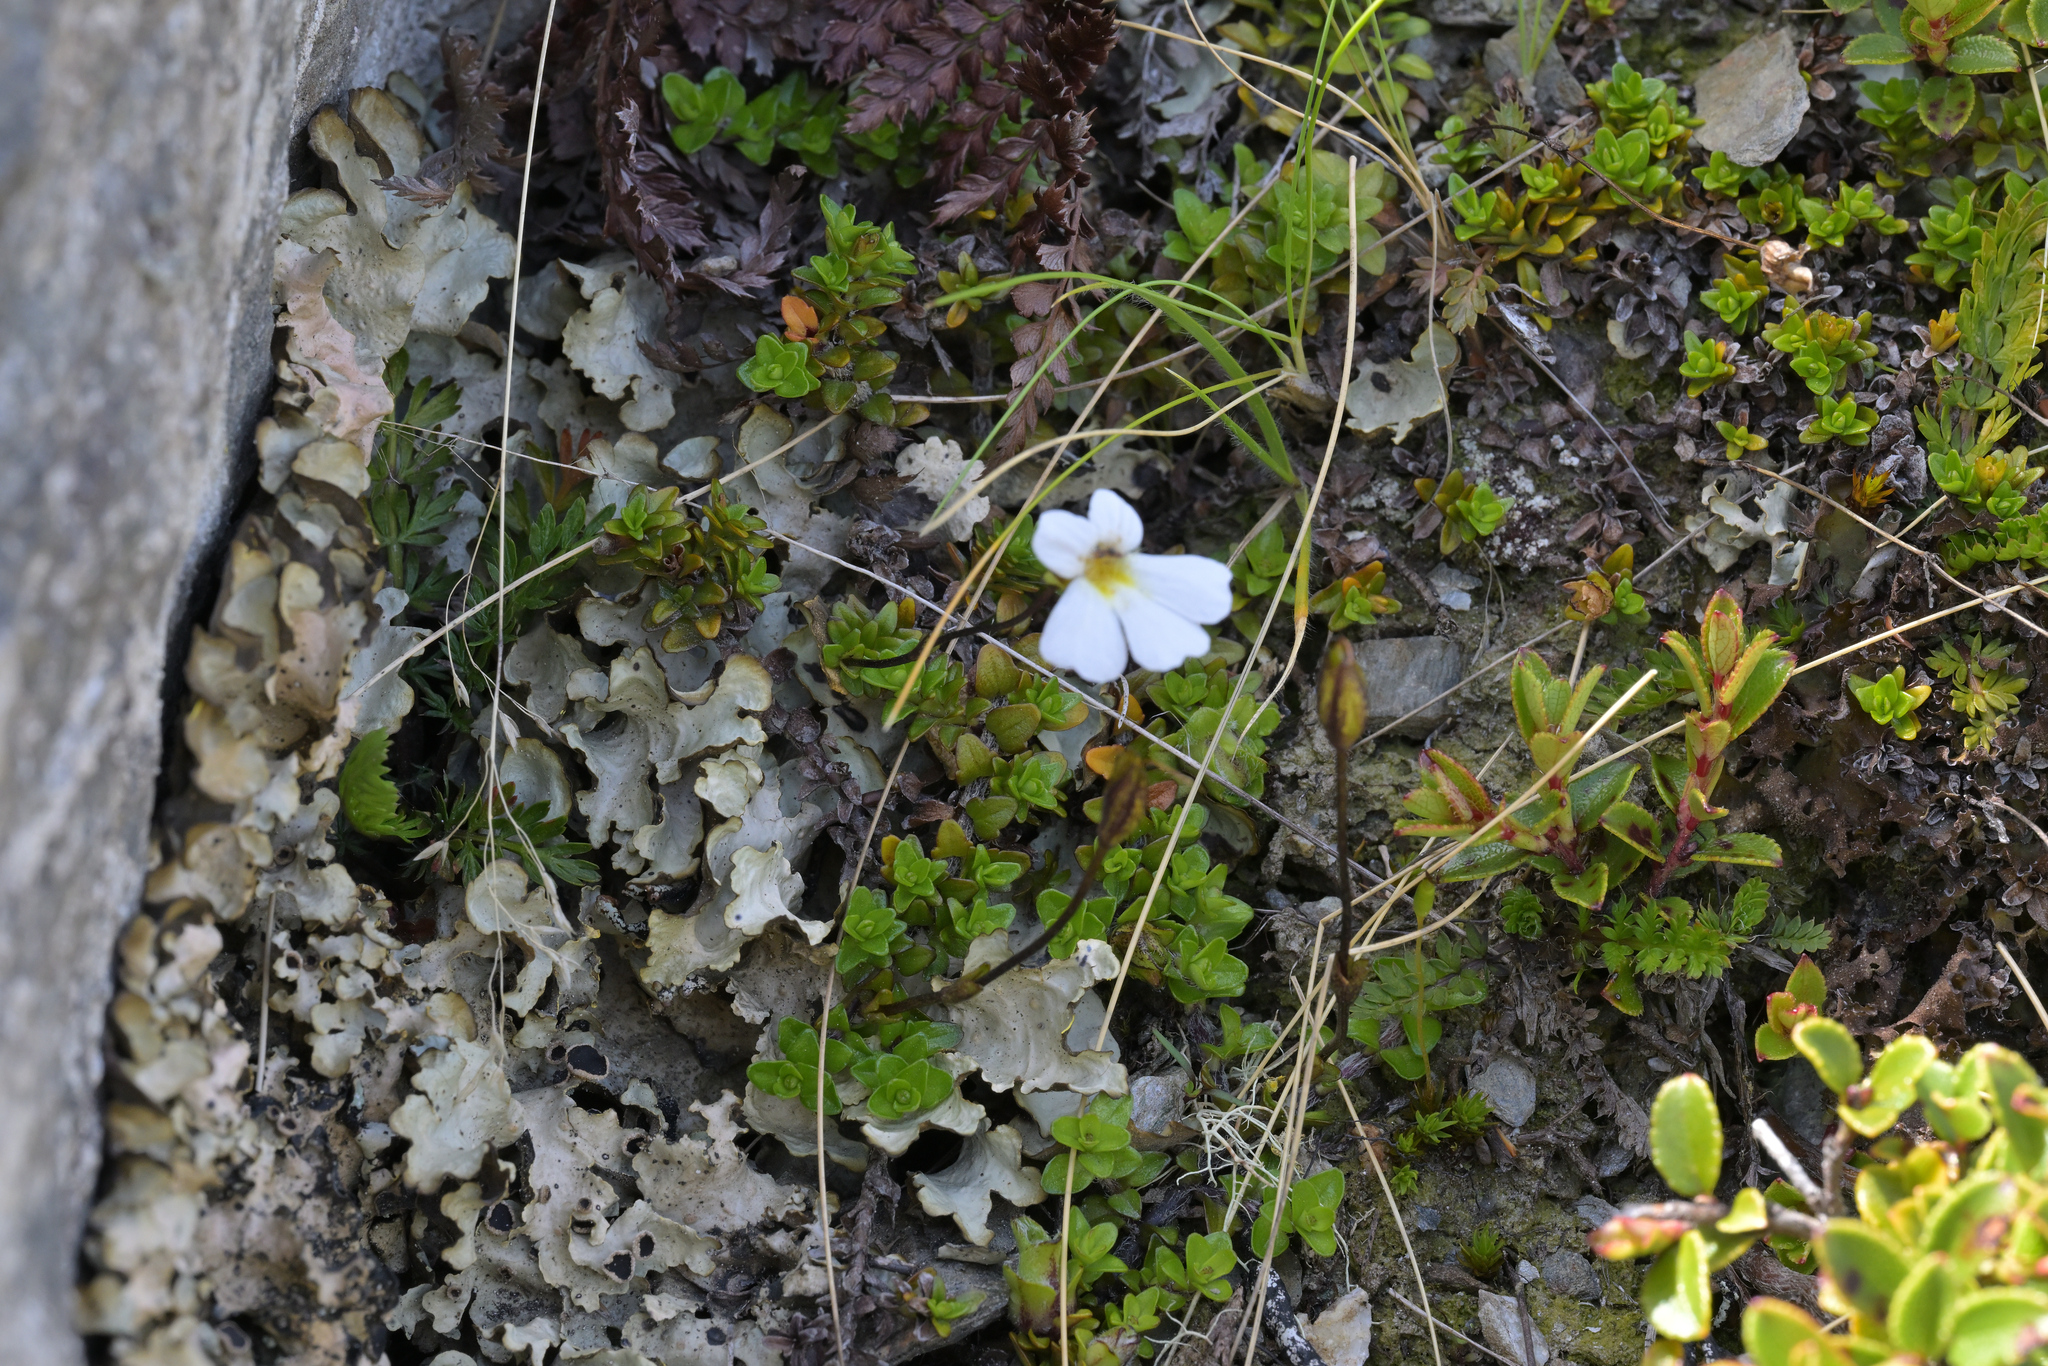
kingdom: Plantae
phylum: Tracheophyta
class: Magnoliopsida
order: Lamiales
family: Plantaginaceae
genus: Ourisia
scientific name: Ourisia caespitosa
